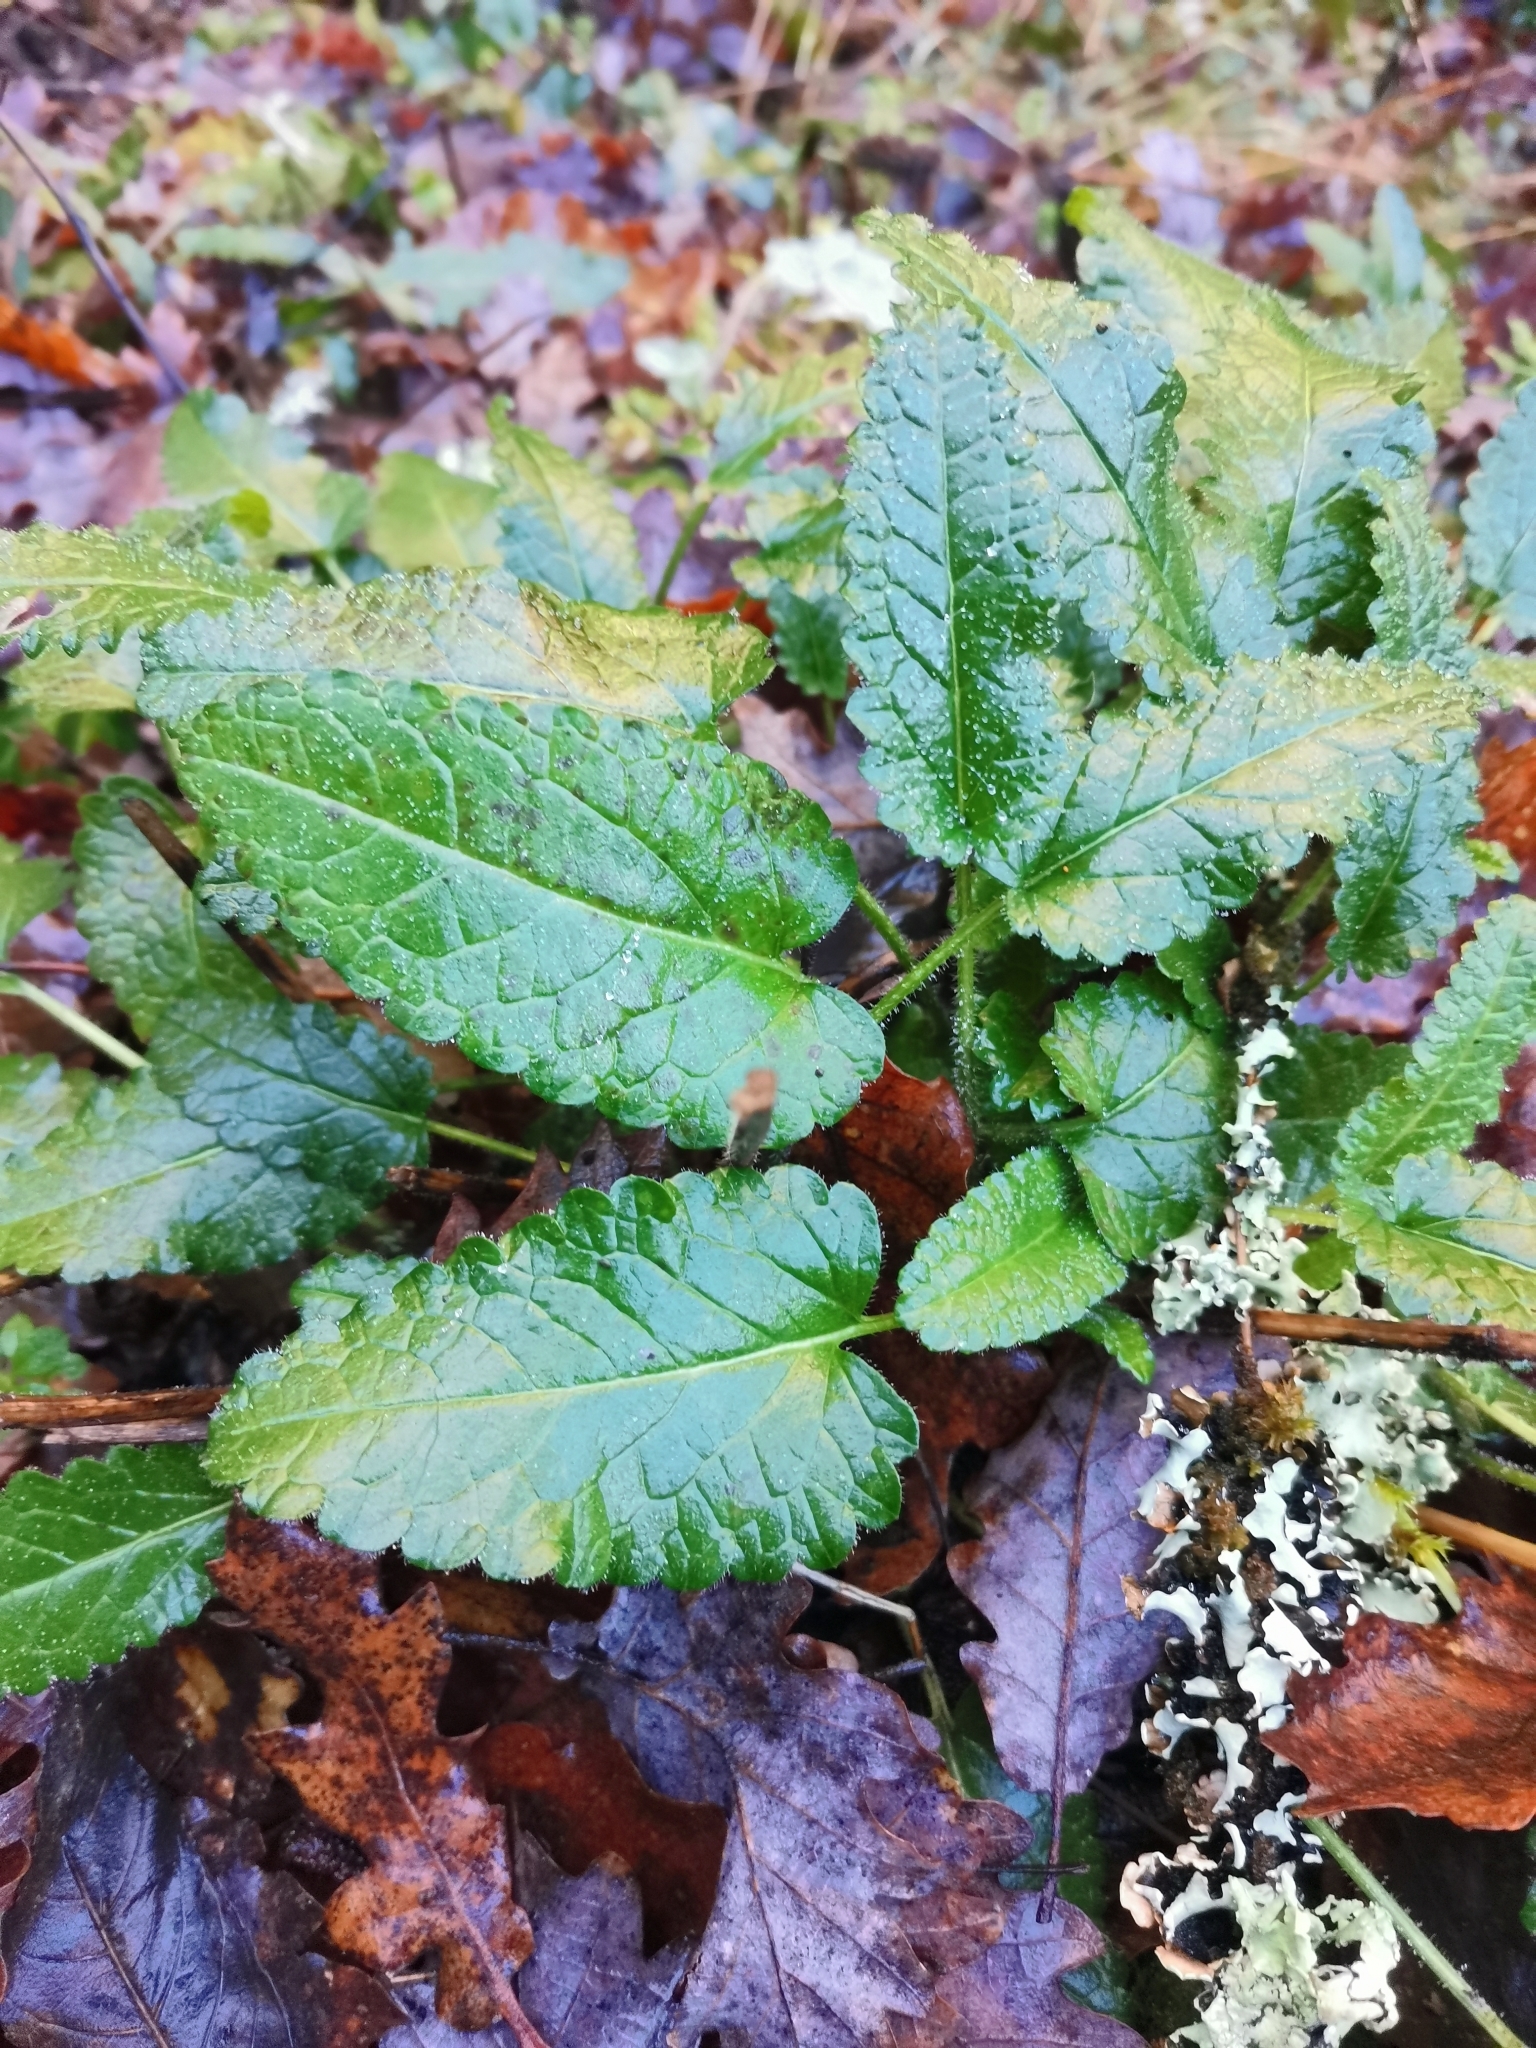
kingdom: Plantae
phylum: Tracheophyta
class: Magnoliopsida
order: Lamiales
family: Lamiaceae
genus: Betonica
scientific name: Betonica officinalis
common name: Bishop's-wort
